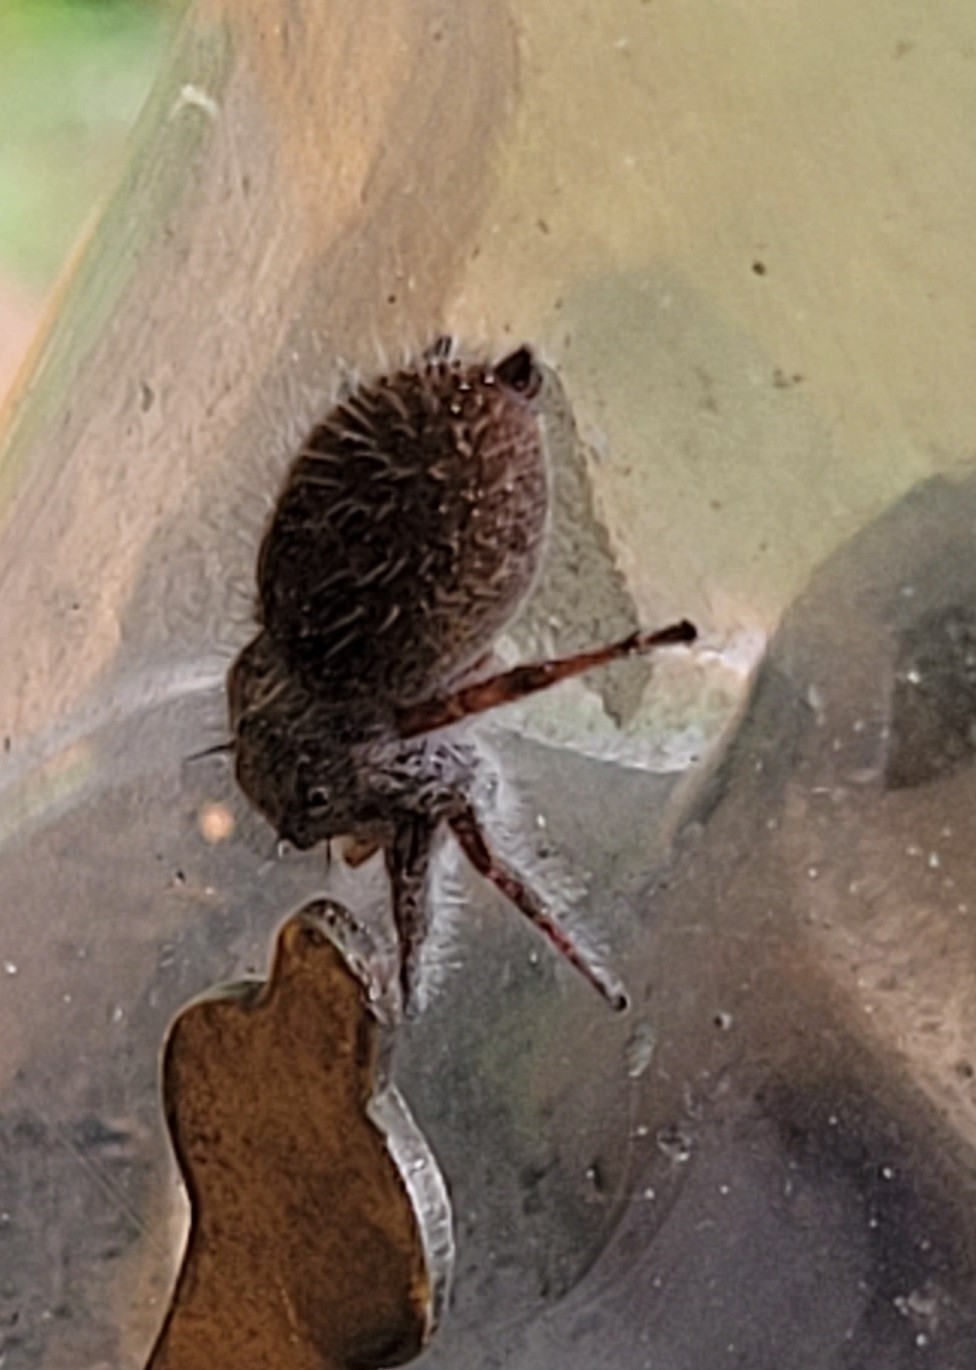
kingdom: Animalia
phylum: Arthropoda
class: Arachnida
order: Araneae
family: Salticidae
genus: Phidippus
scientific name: Phidippus princeps
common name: Grayish jumping spider
